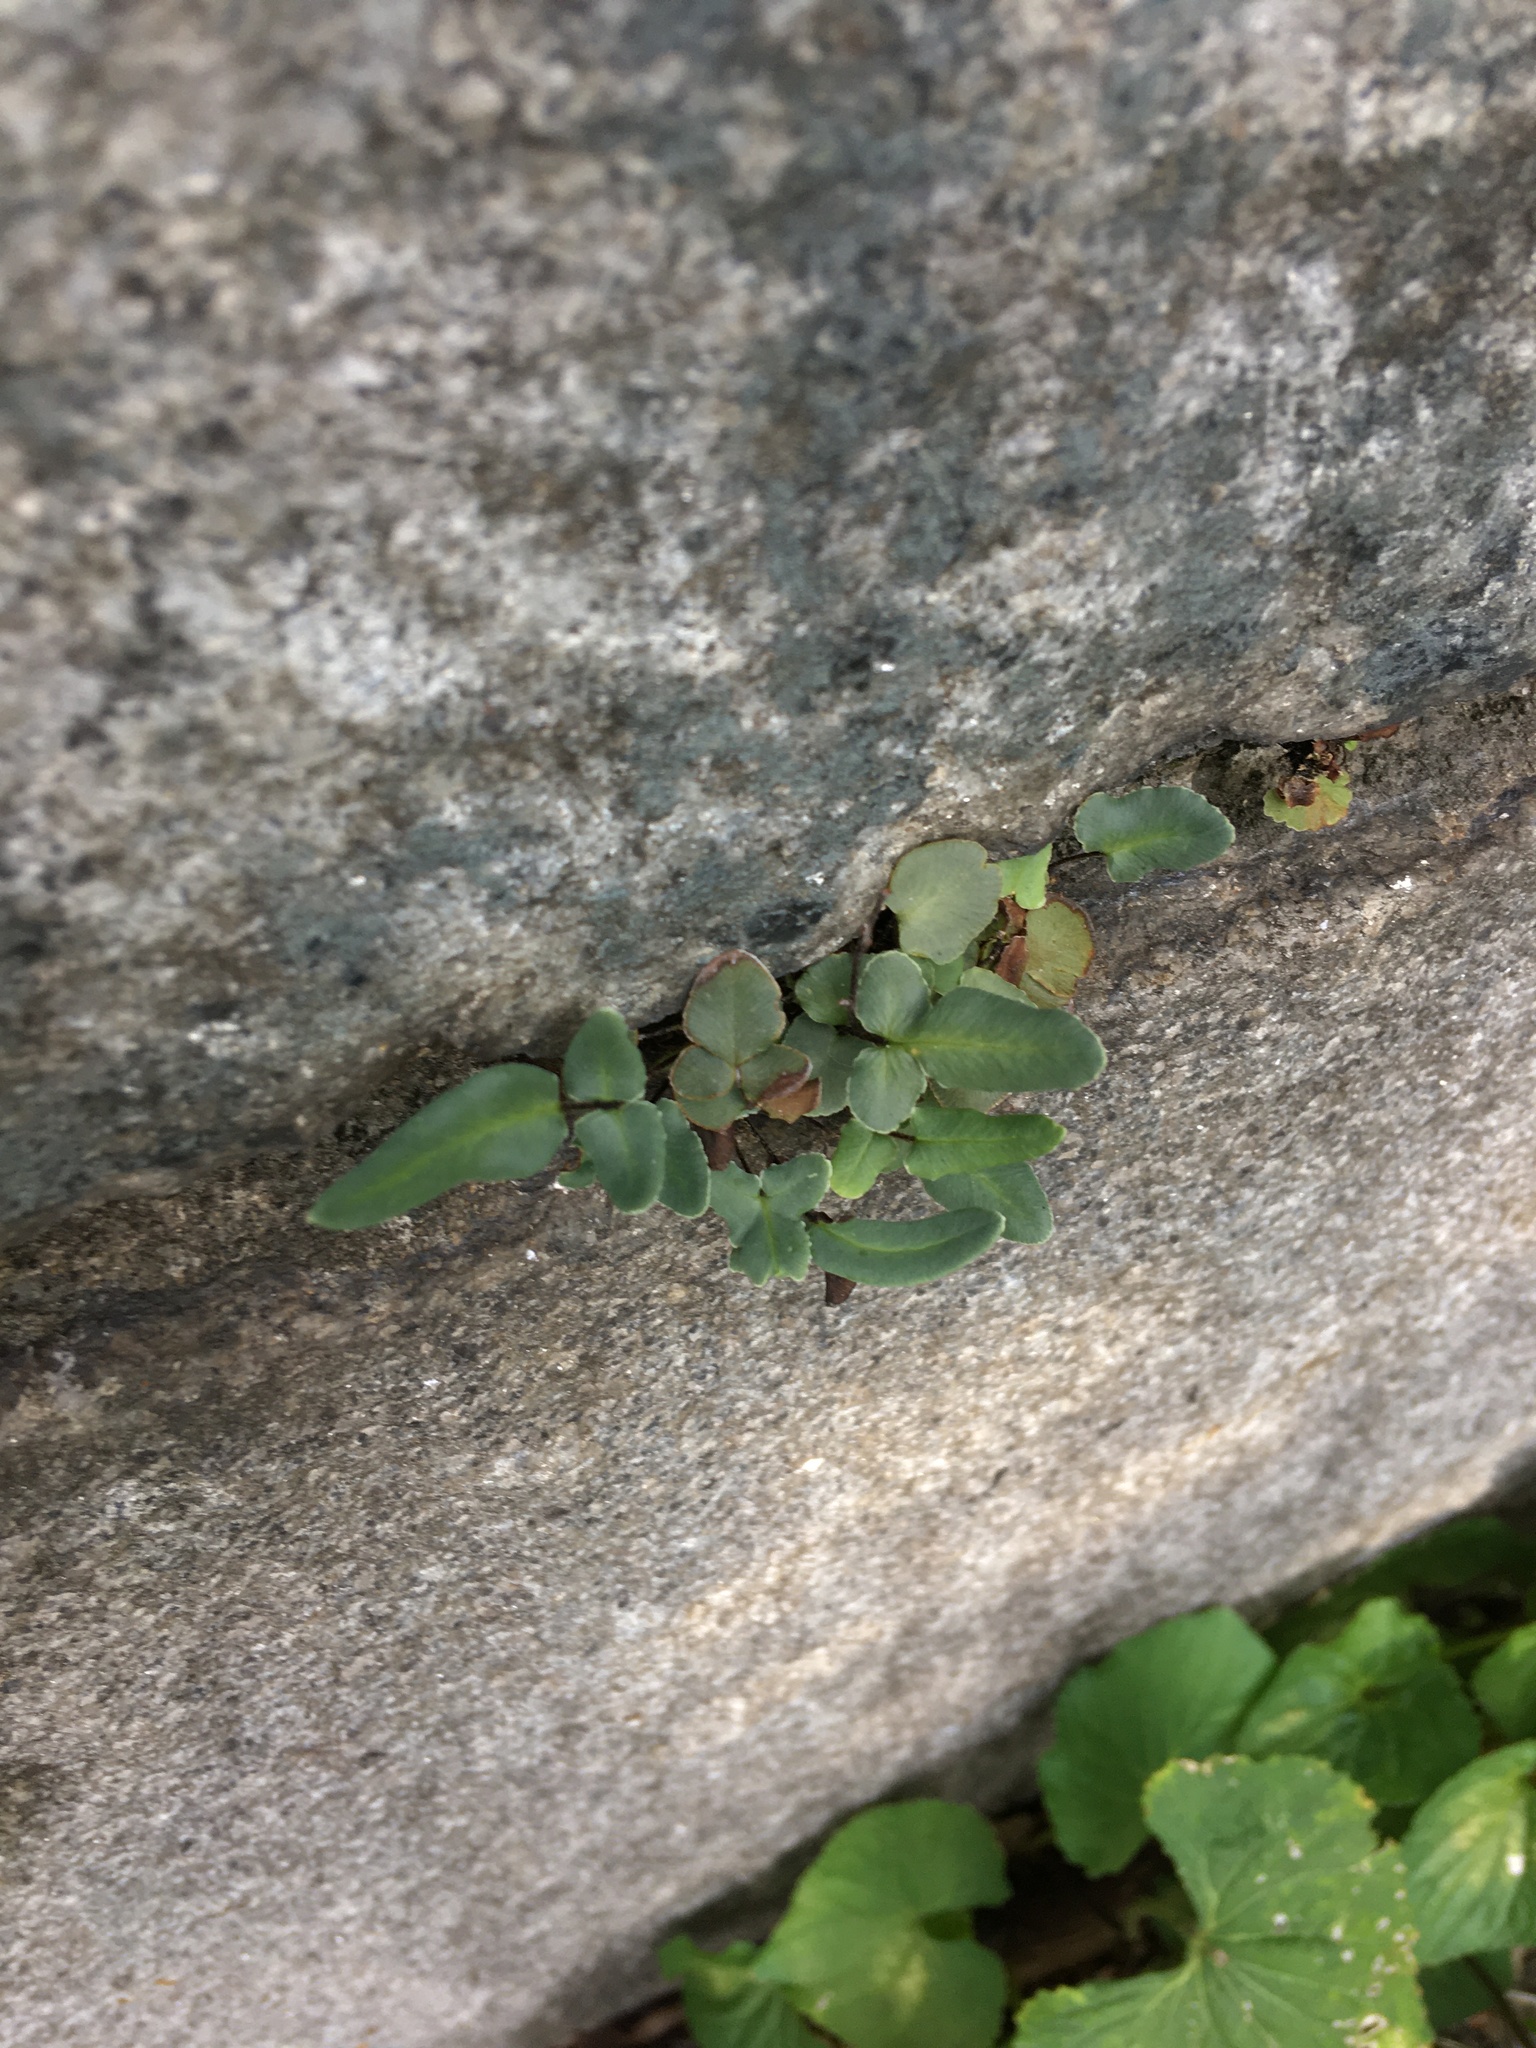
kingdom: Plantae
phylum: Tracheophyta
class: Polypodiopsida
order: Polypodiales
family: Pteridaceae
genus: Pellaea
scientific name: Pellaea atropurpurea
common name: Hairy cliffbrake
